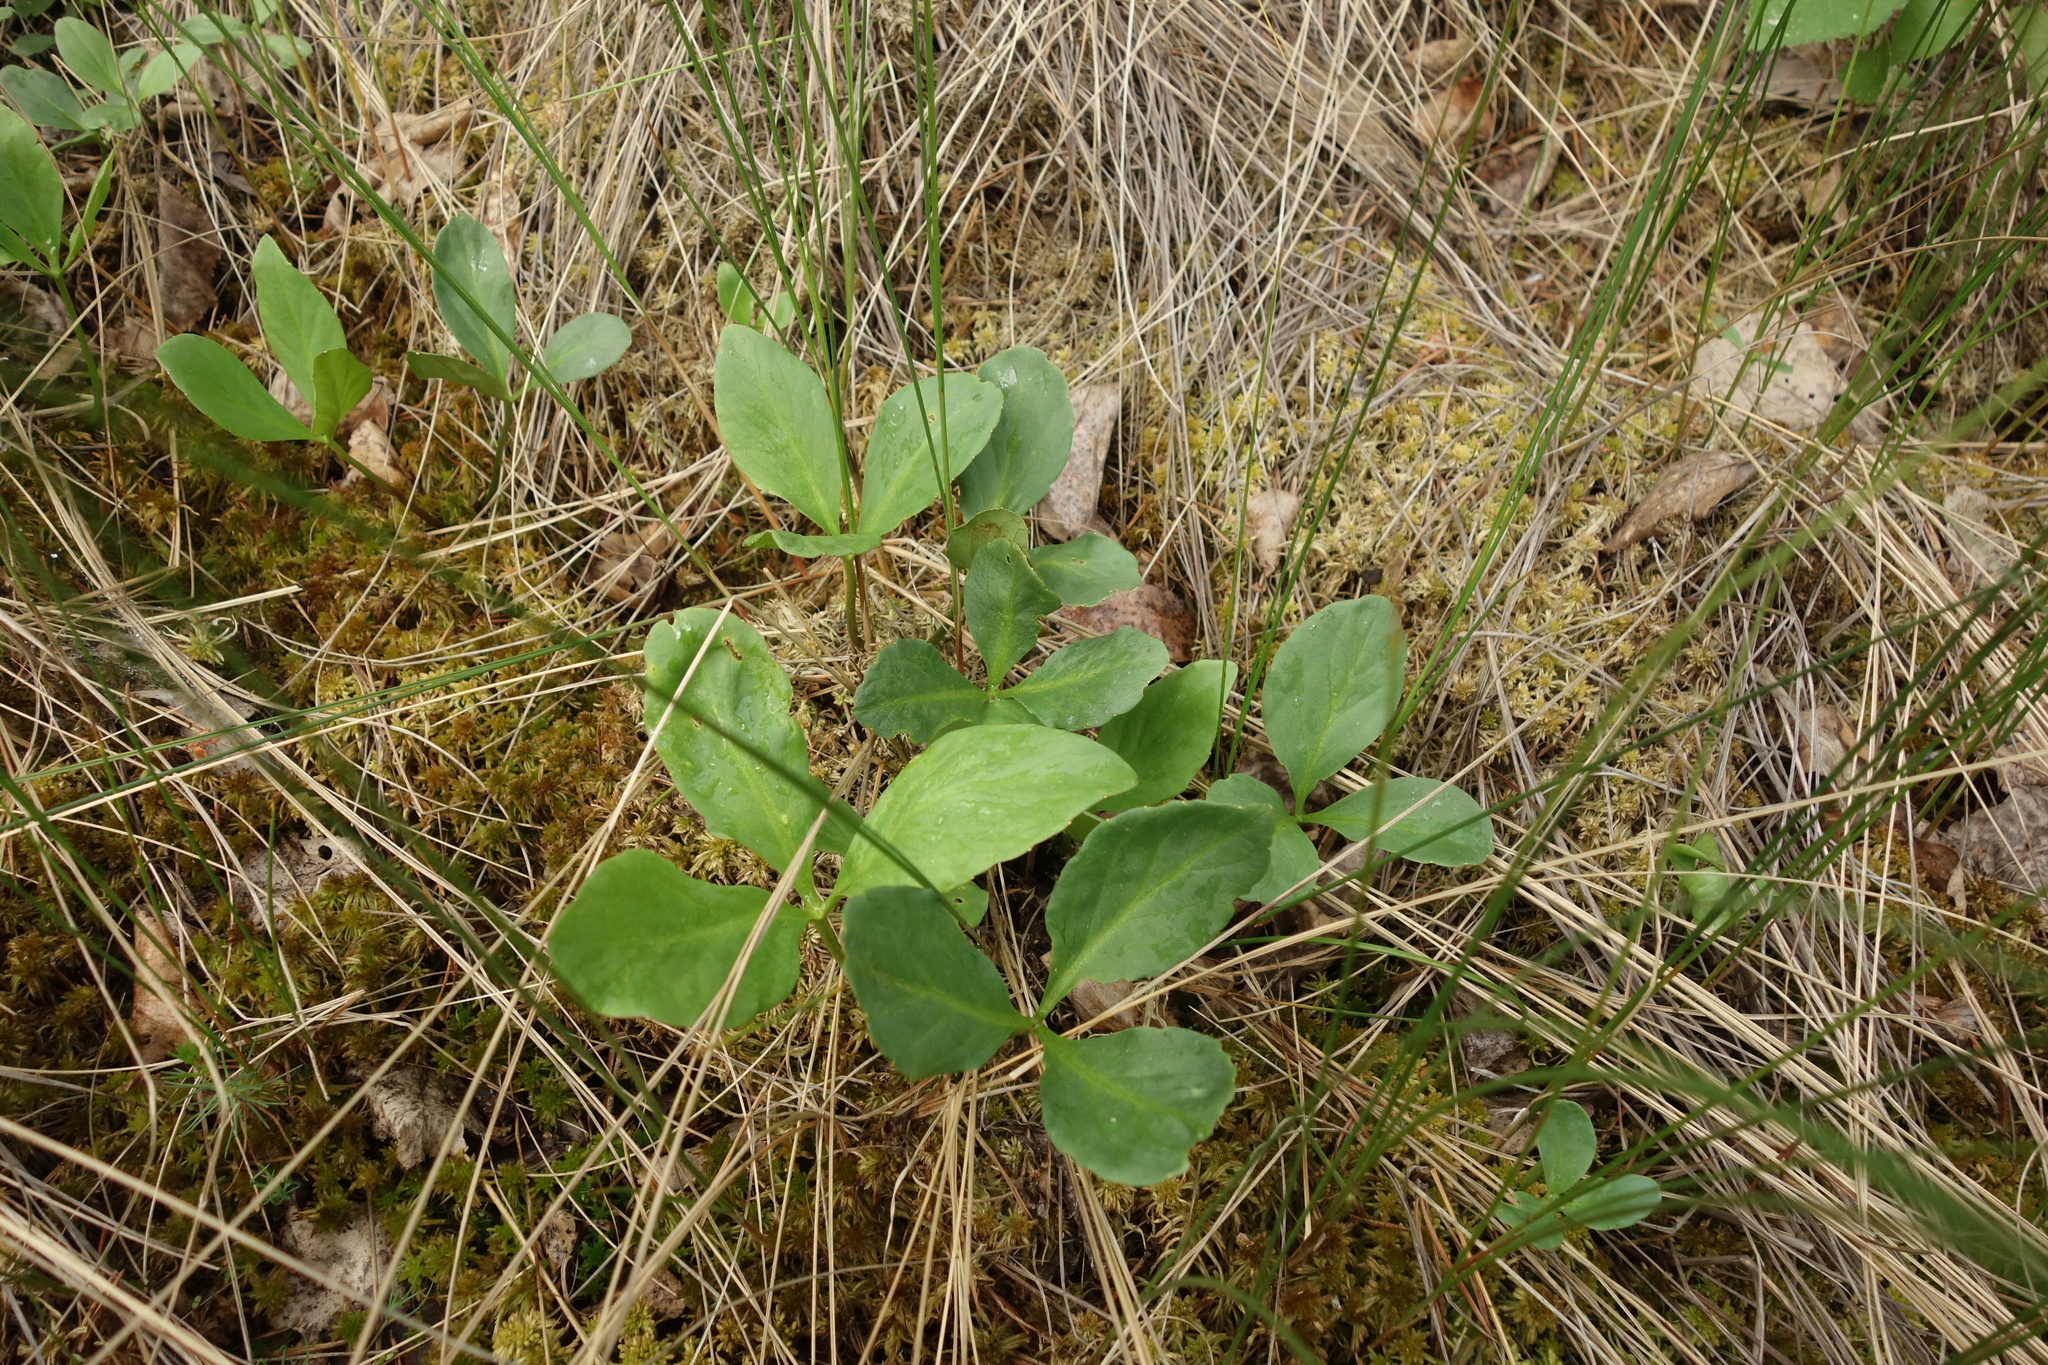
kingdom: Plantae
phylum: Tracheophyta
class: Magnoliopsida
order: Asterales
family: Menyanthaceae
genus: Menyanthes
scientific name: Menyanthes trifoliata
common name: Bogbean
